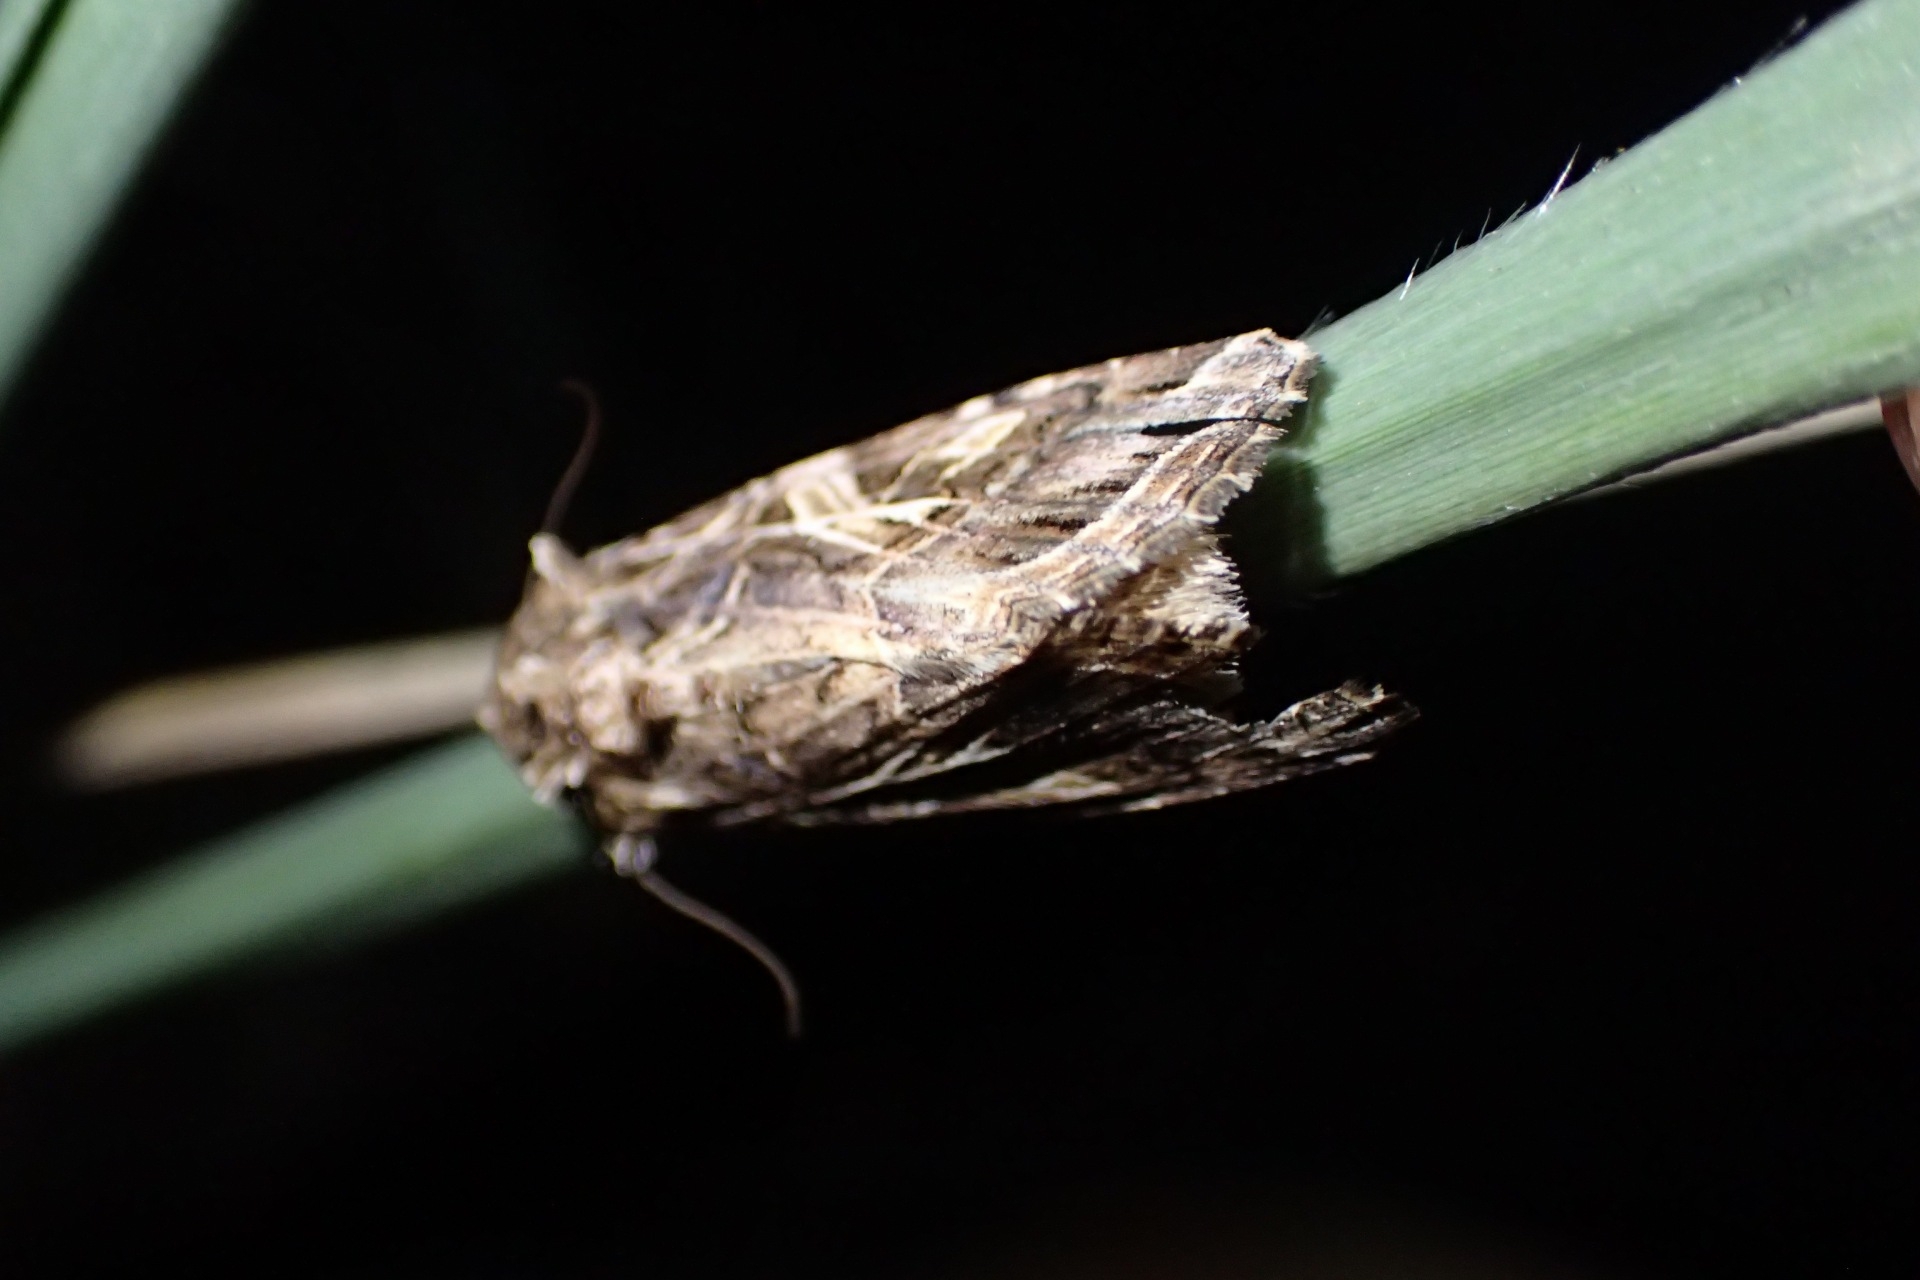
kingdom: Animalia
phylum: Arthropoda
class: Insecta
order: Lepidoptera
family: Noctuidae
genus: Spodoptera
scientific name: Spodoptera litura
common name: Asian cotton leafworm
